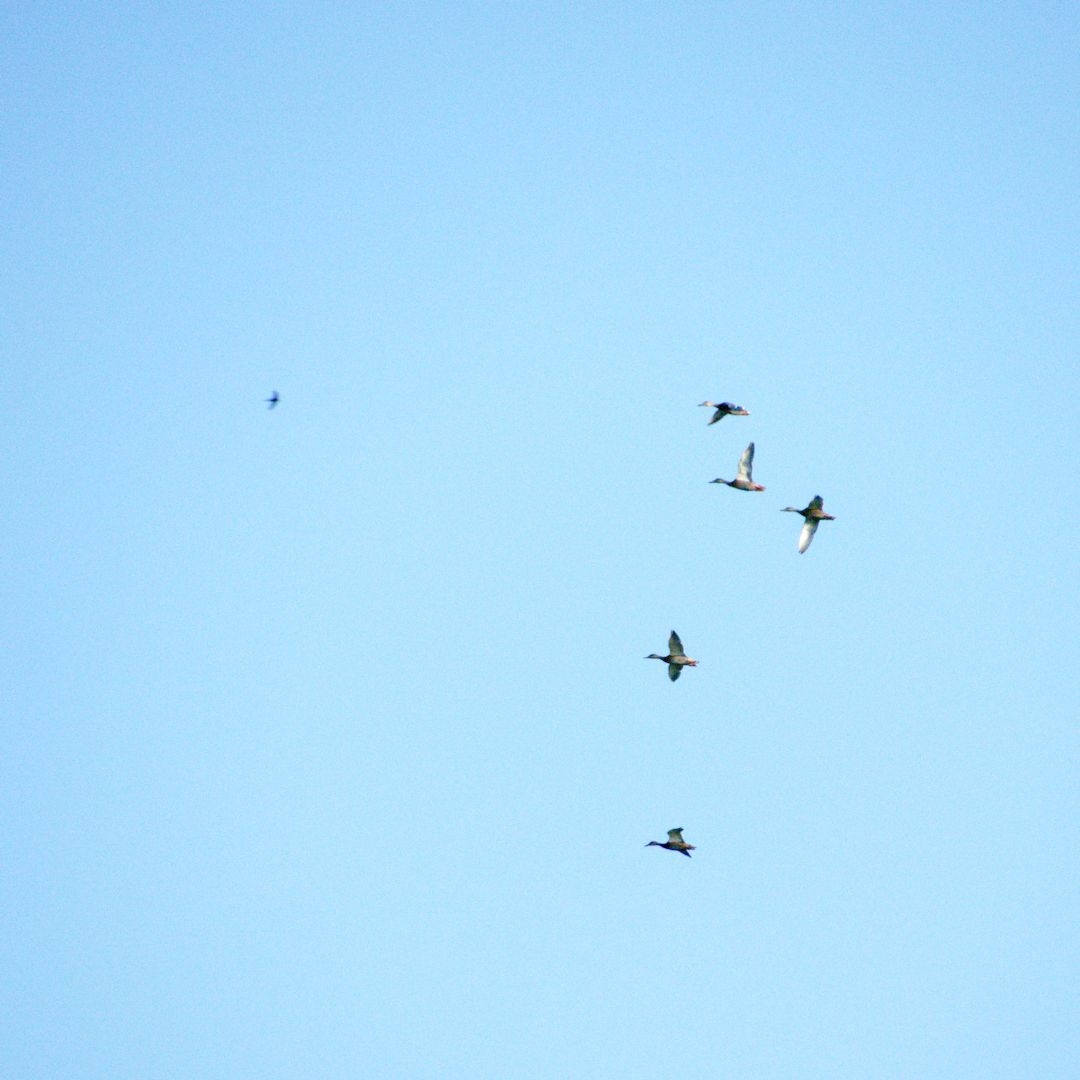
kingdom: Animalia
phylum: Chordata
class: Aves
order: Anseriformes
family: Anatidae
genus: Anas
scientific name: Anas platyrhynchos
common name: Mallard
